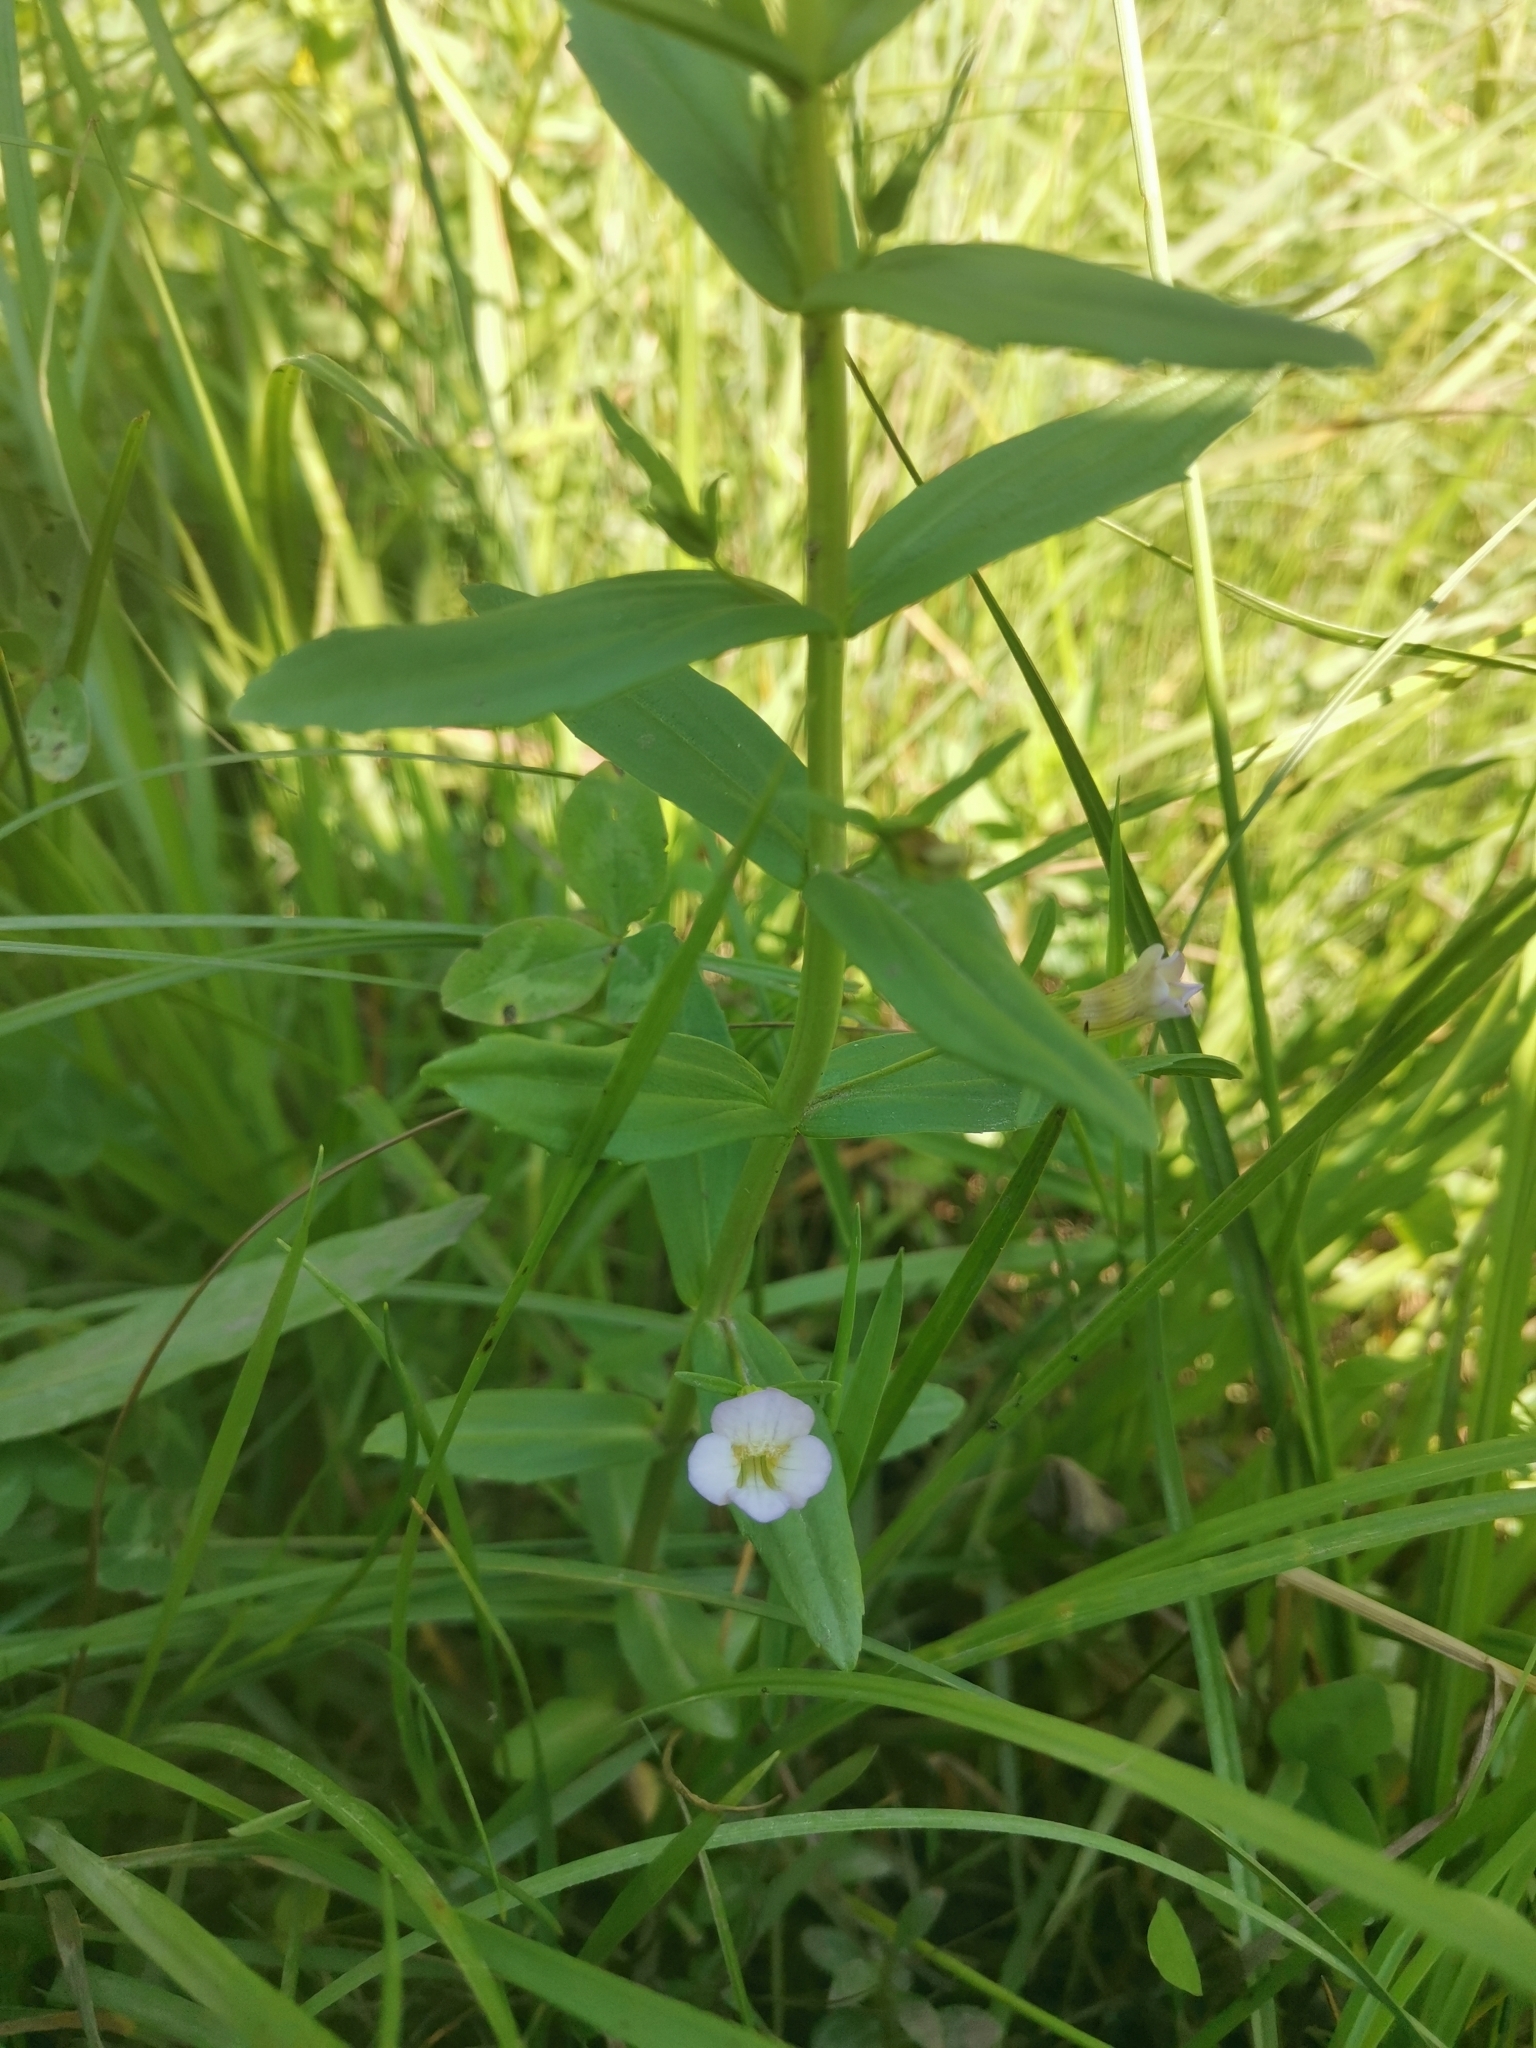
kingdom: Plantae
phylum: Tracheophyta
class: Magnoliopsida
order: Lamiales
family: Plantaginaceae
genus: Gratiola
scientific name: Gratiola officinalis
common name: Gratiola
